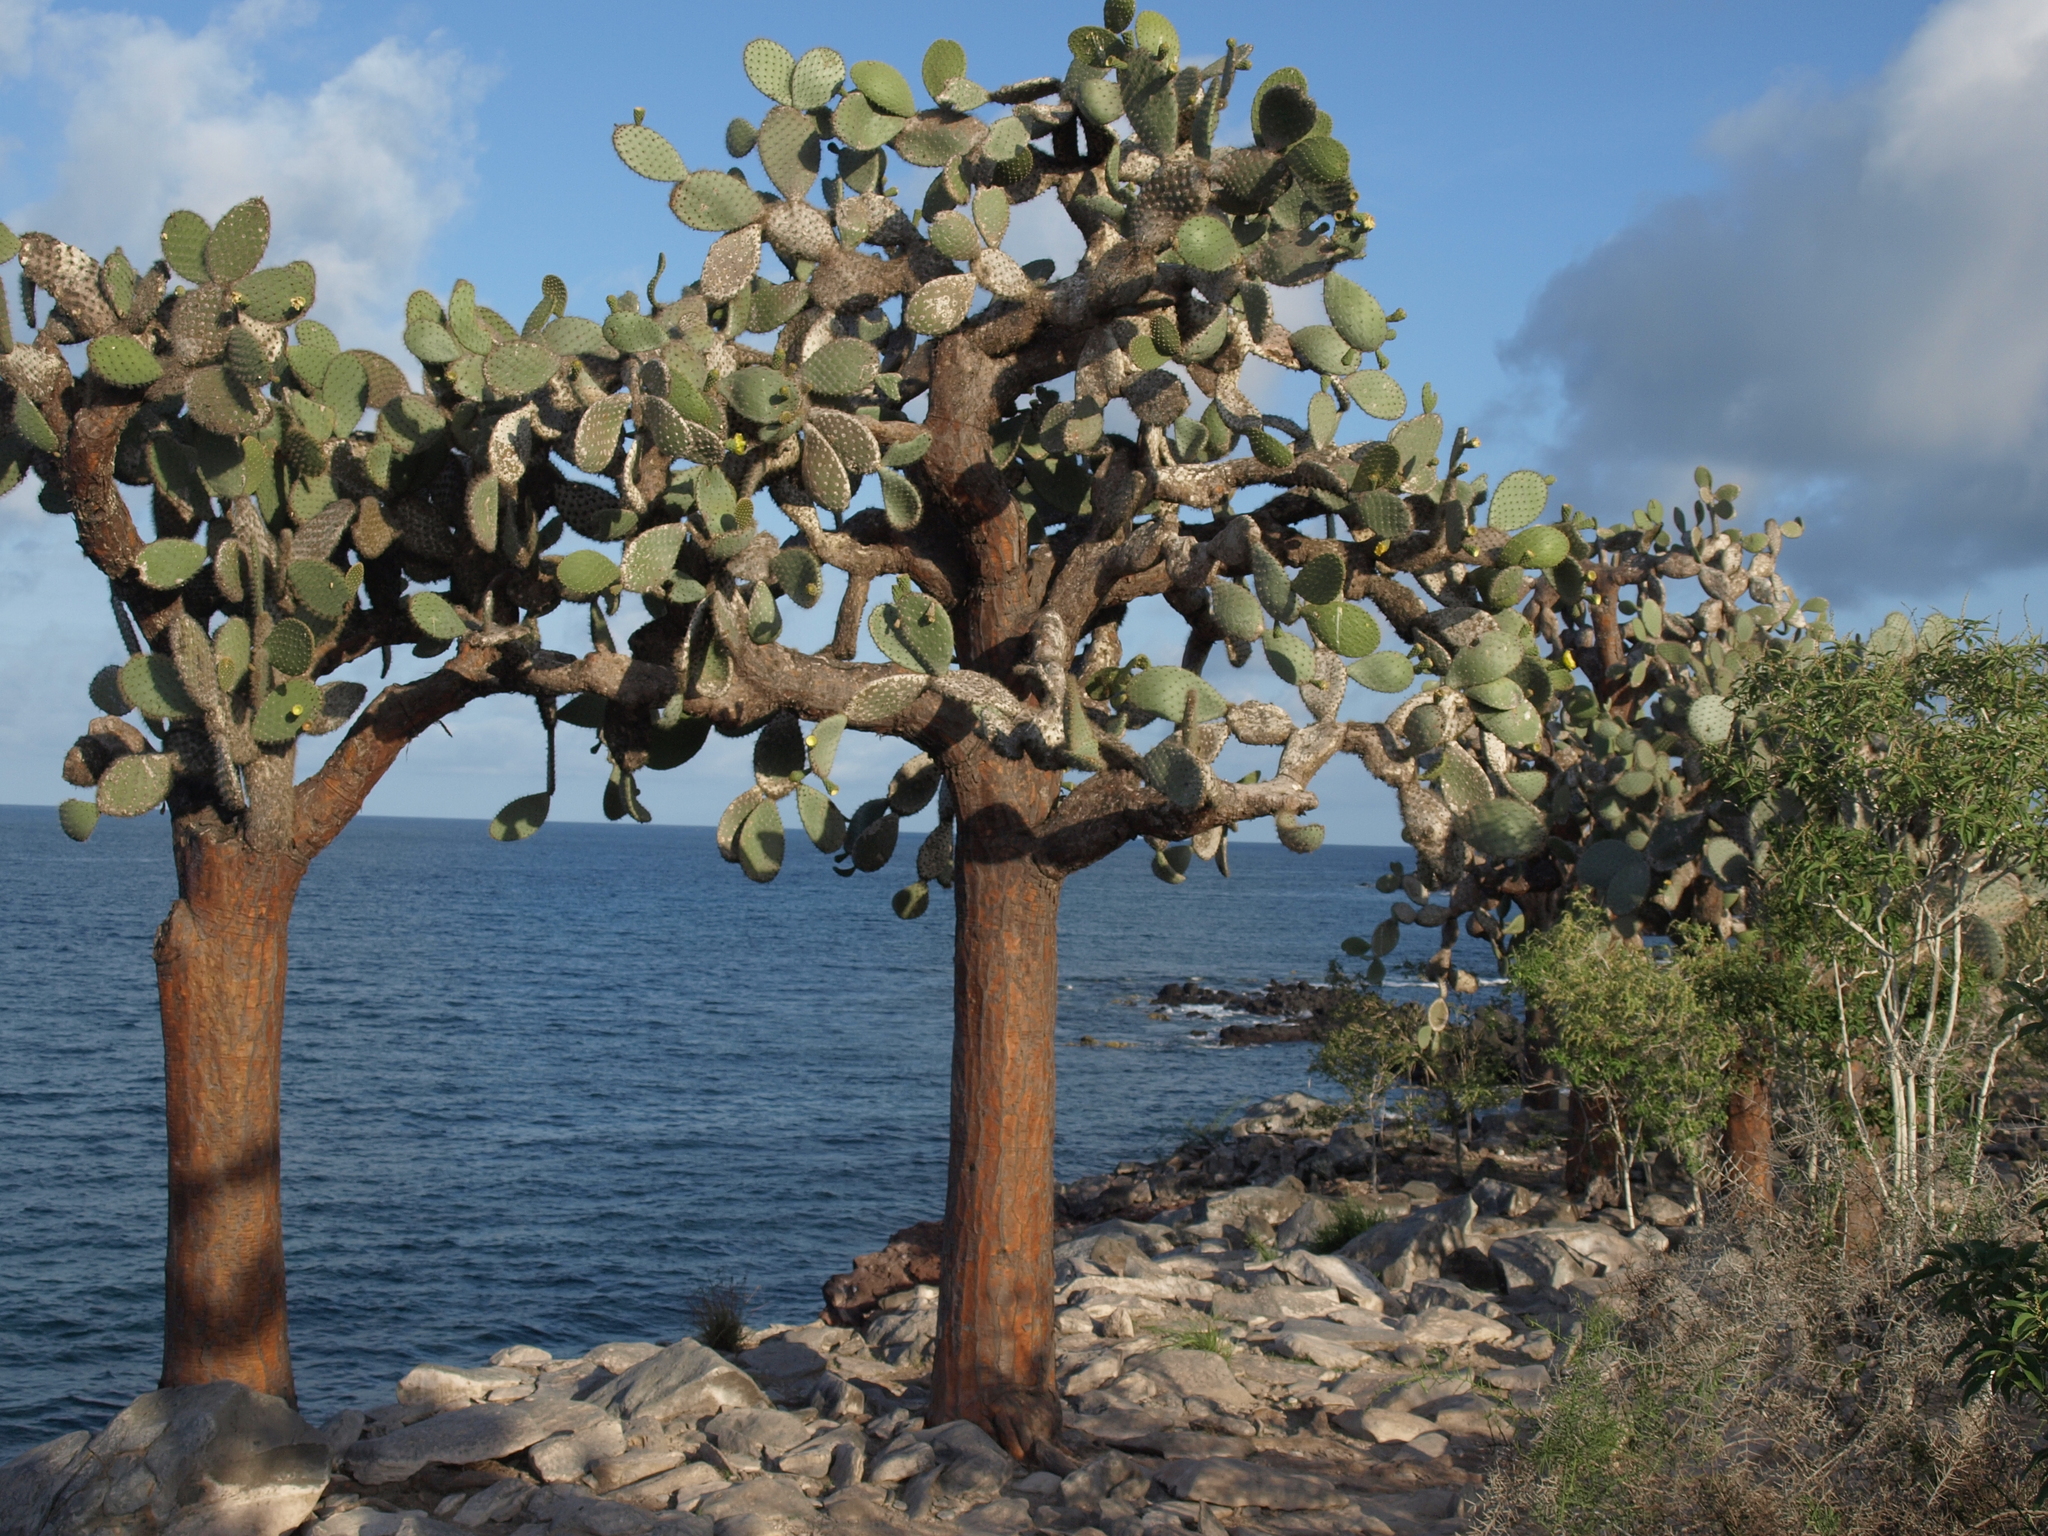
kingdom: Plantae
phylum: Tracheophyta
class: Magnoliopsida
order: Caryophyllales
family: Cactaceae
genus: Opuntia
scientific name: Opuntia galapageia
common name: Galápagos prickly pear
